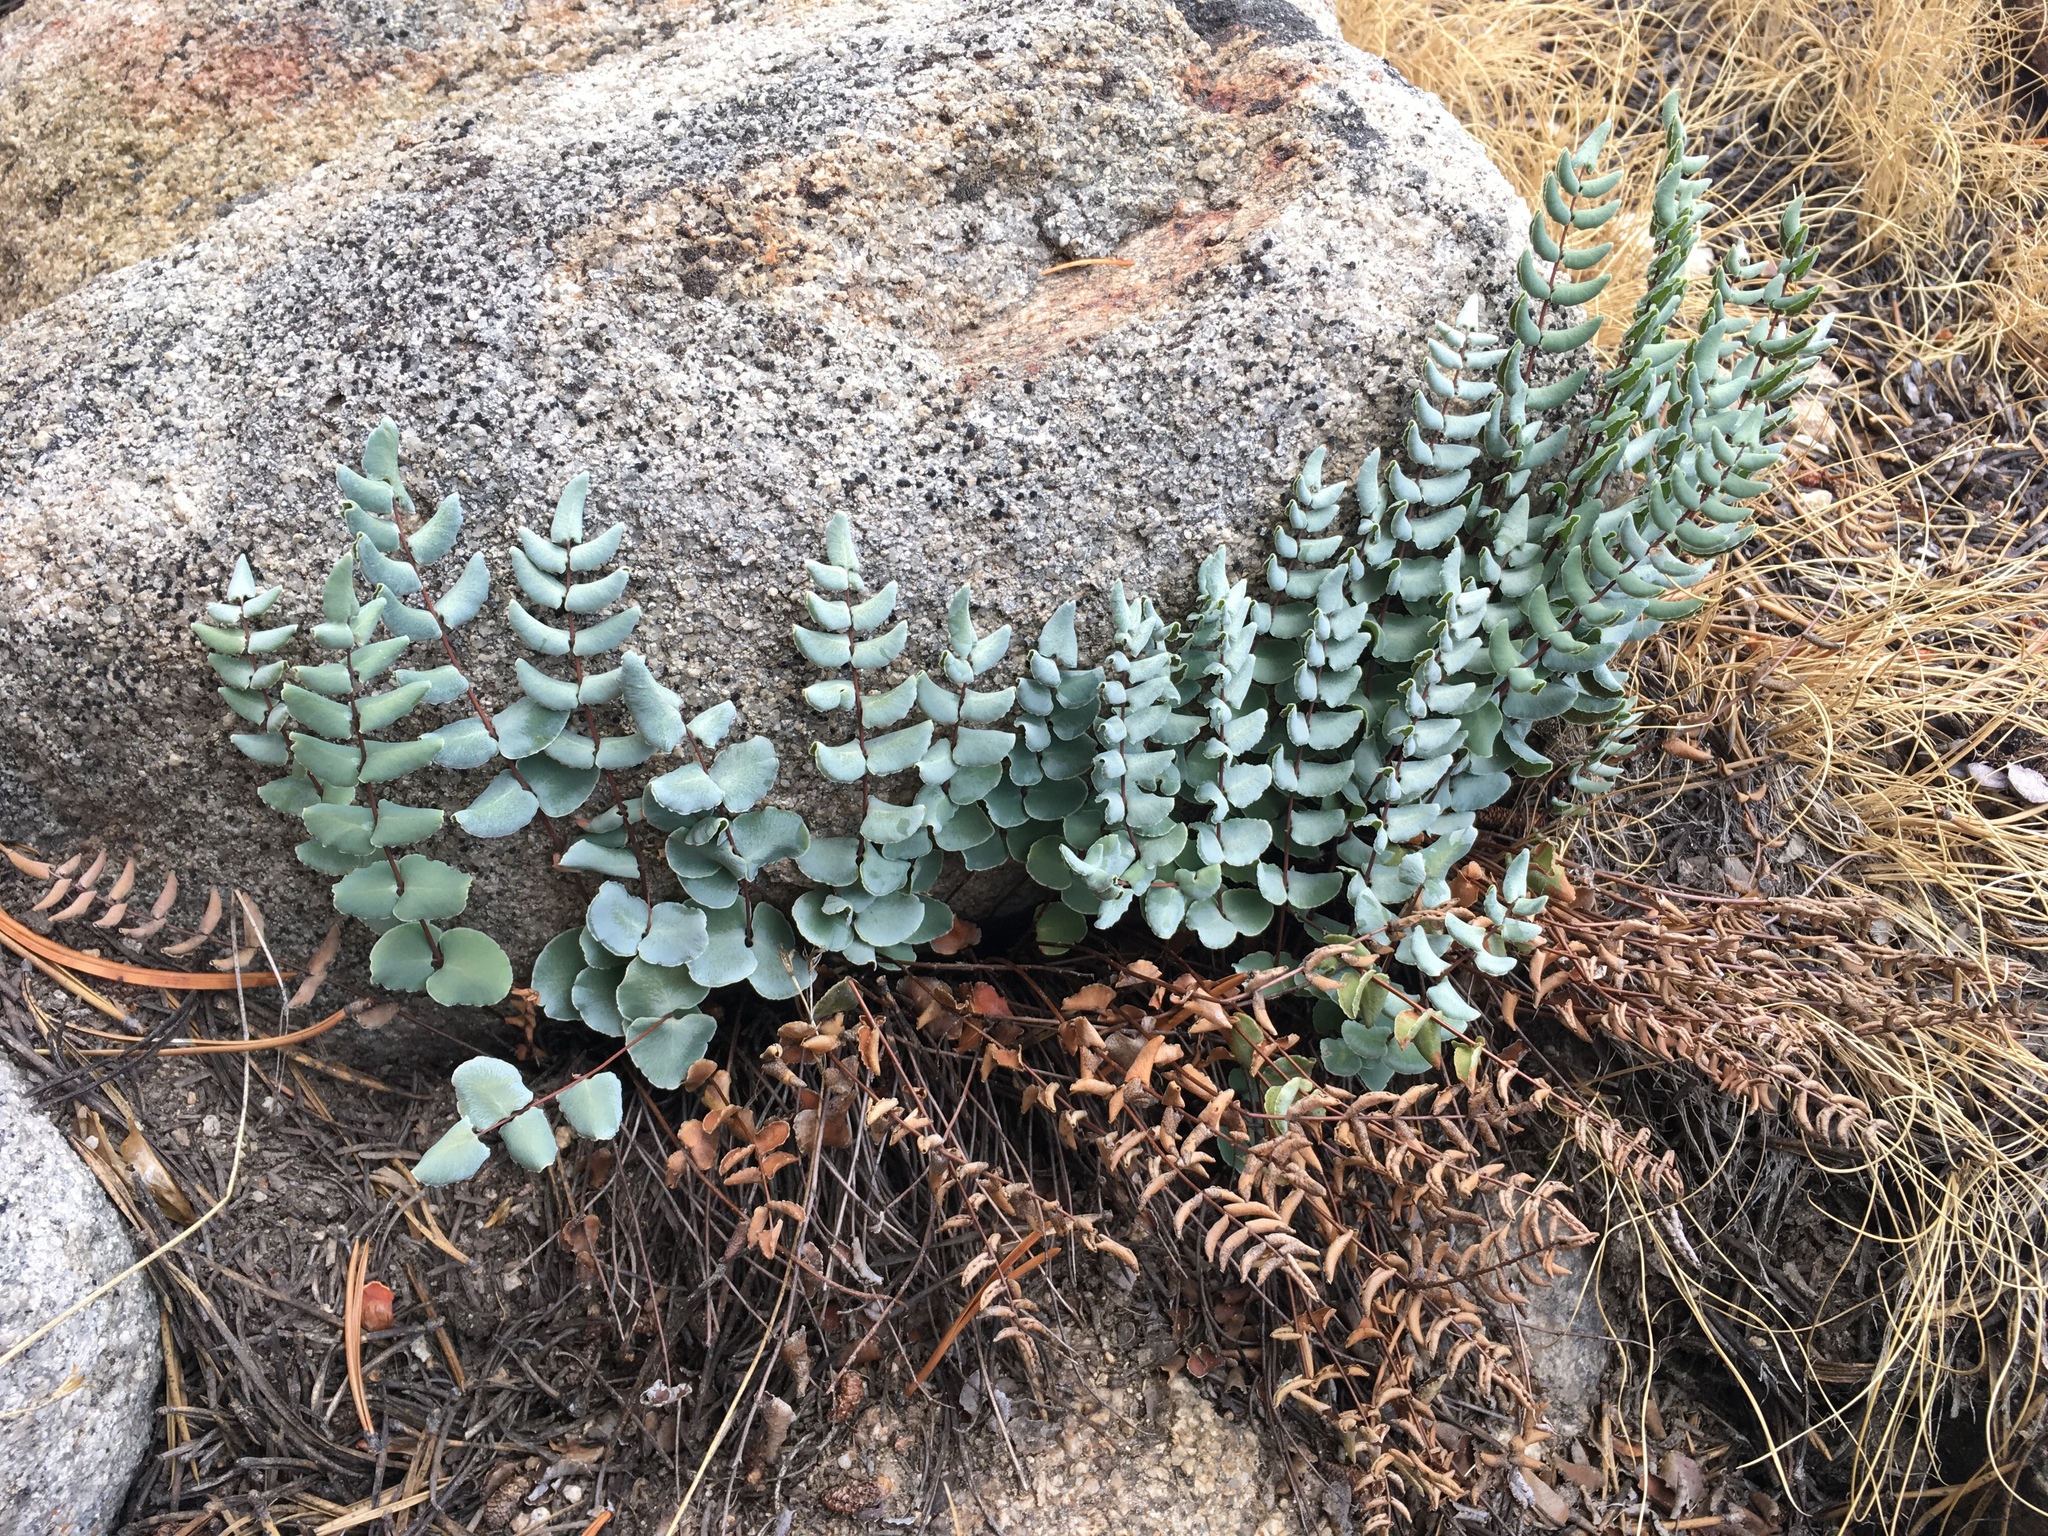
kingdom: Plantae
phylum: Tracheophyta
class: Polypodiopsida
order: Polypodiales
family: Pteridaceae
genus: Pellaea
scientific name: Pellaea bridgesii
